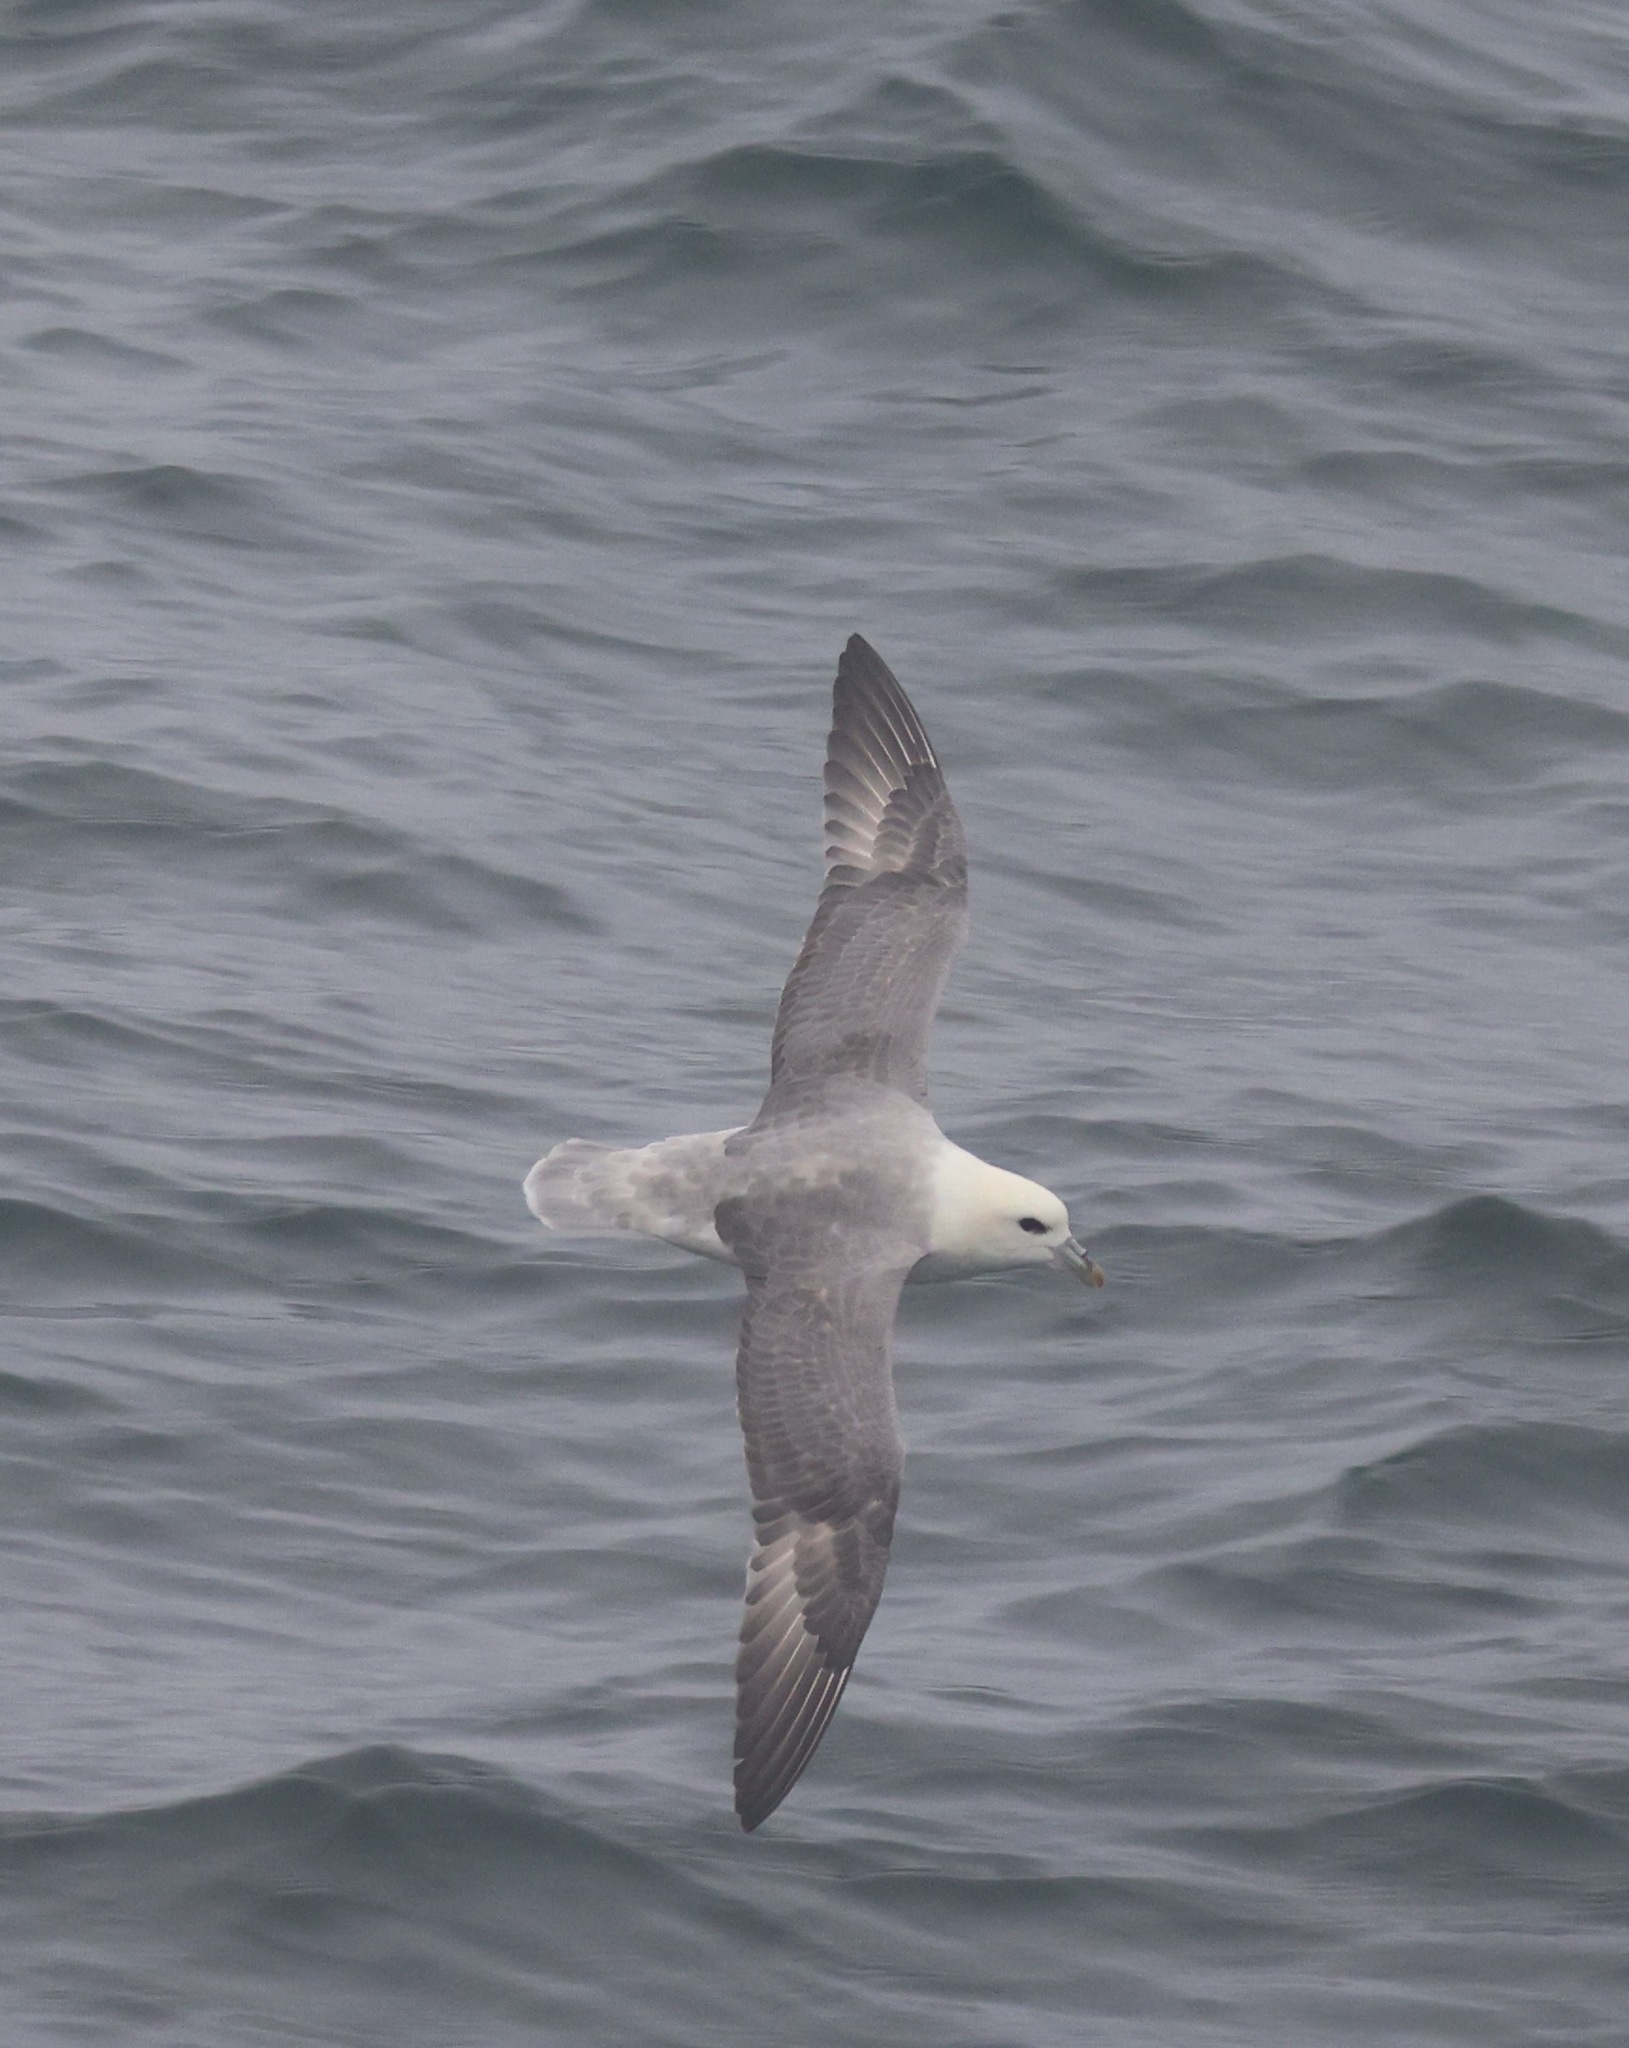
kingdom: Animalia
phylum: Chordata
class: Aves
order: Procellariiformes
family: Procellariidae
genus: Fulmarus
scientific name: Fulmarus glacialis
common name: Northern fulmar
